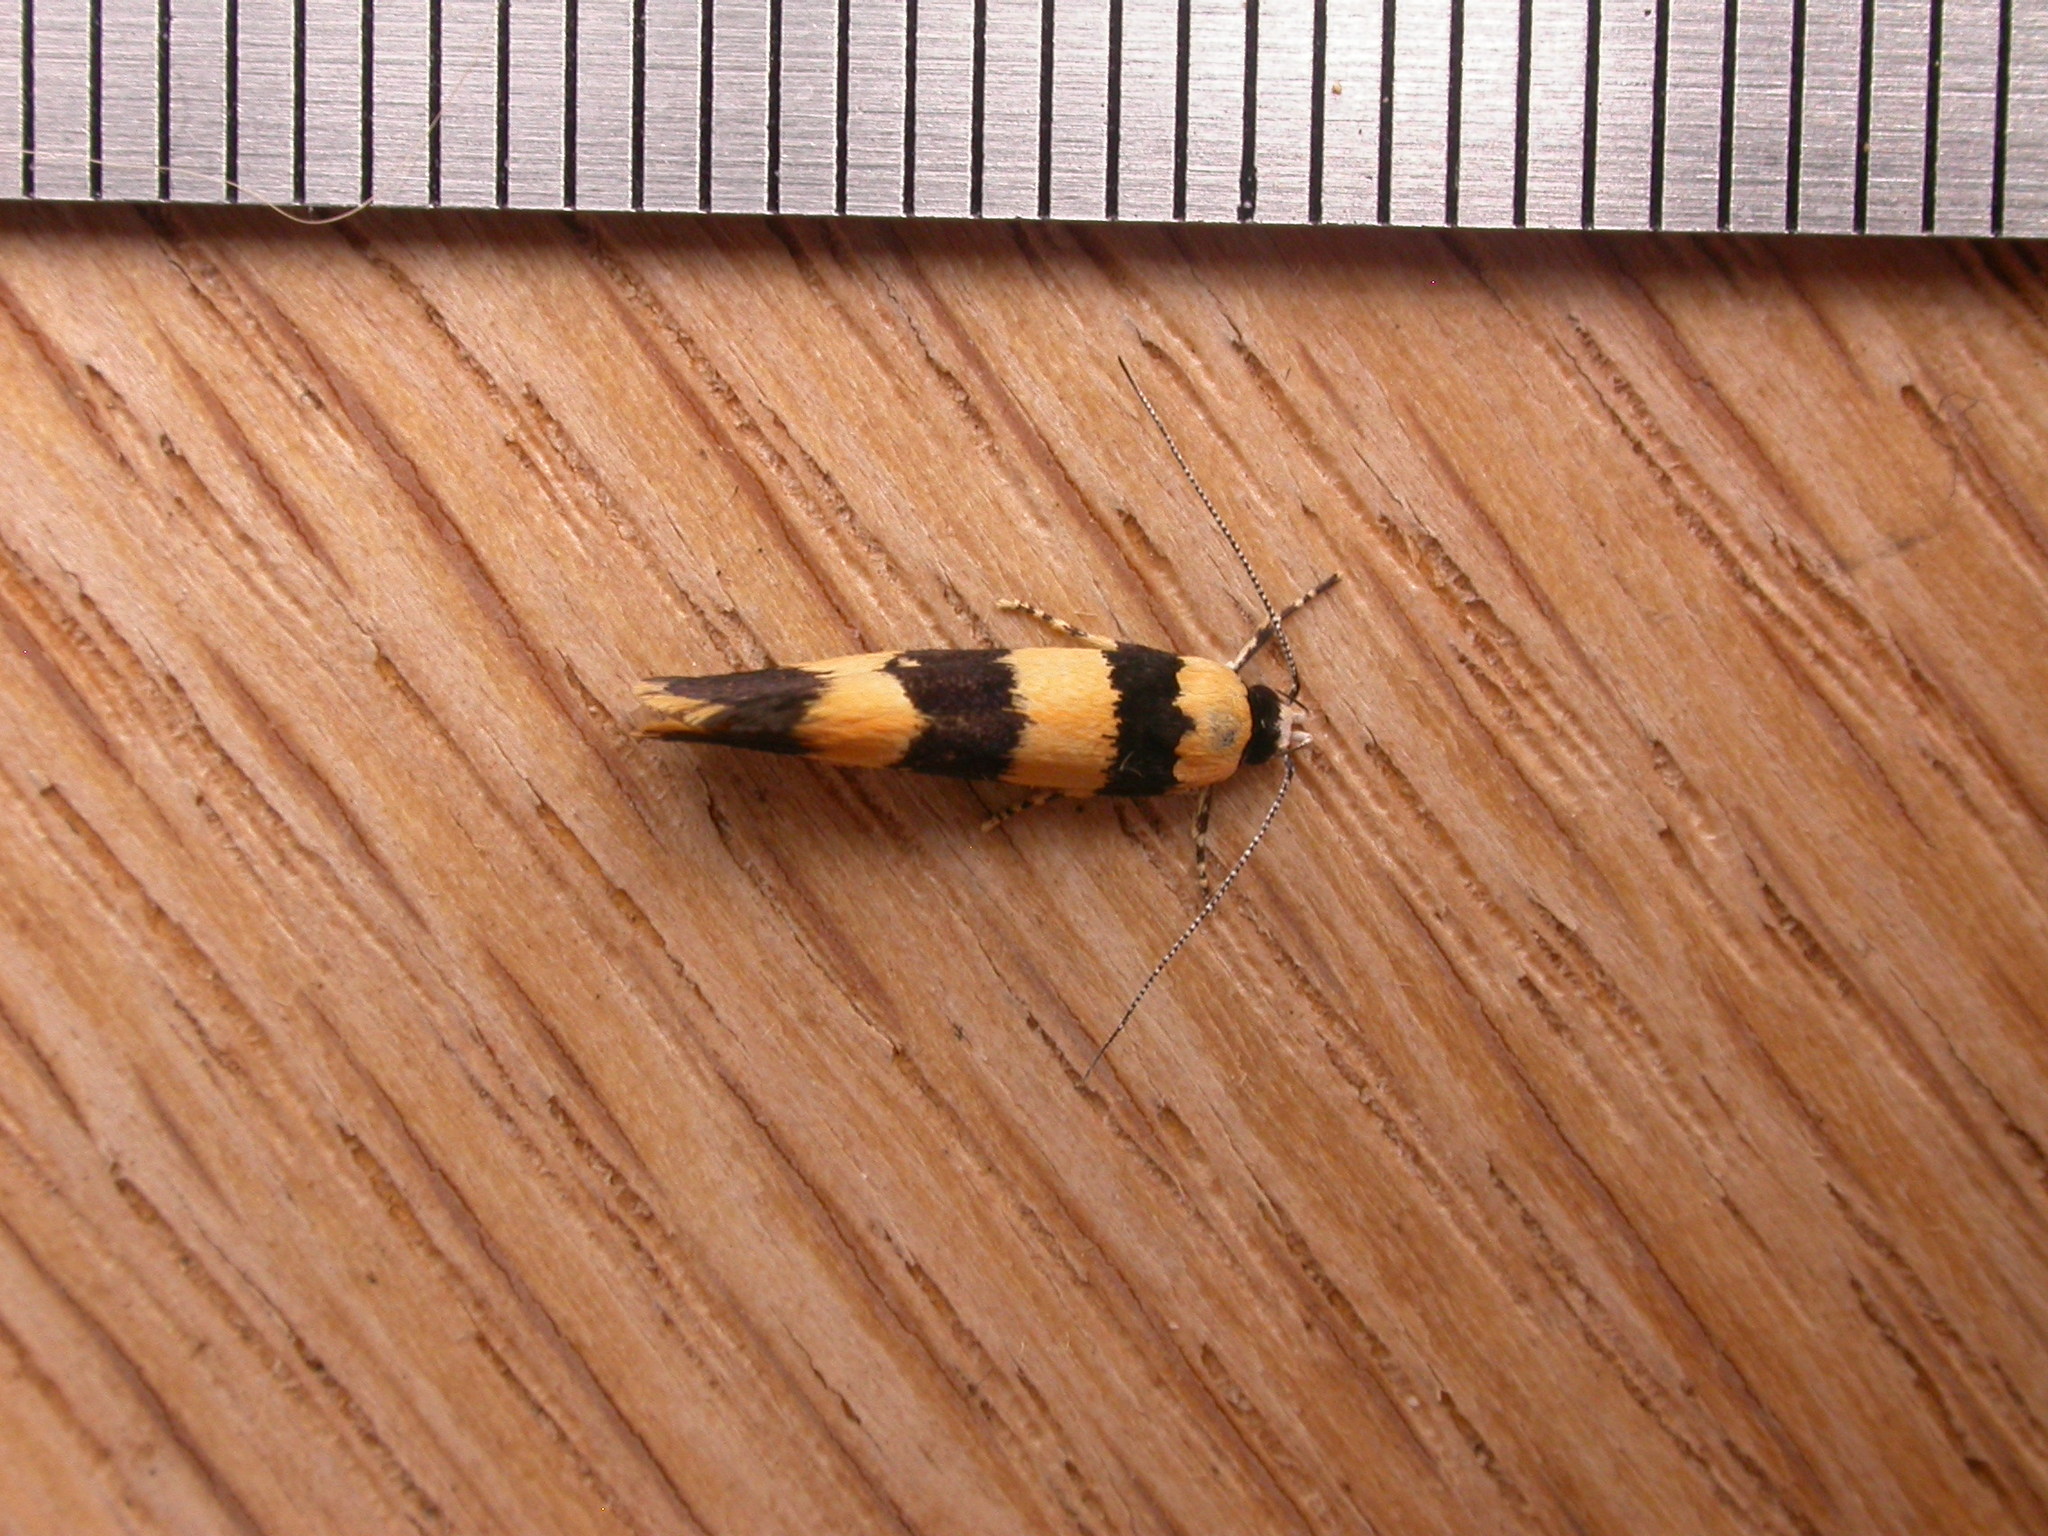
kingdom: Animalia
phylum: Arthropoda
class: Insecta
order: Lepidoptera
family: Xyloryctidae
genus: Telecrates
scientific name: Telecrates melanochrysa
